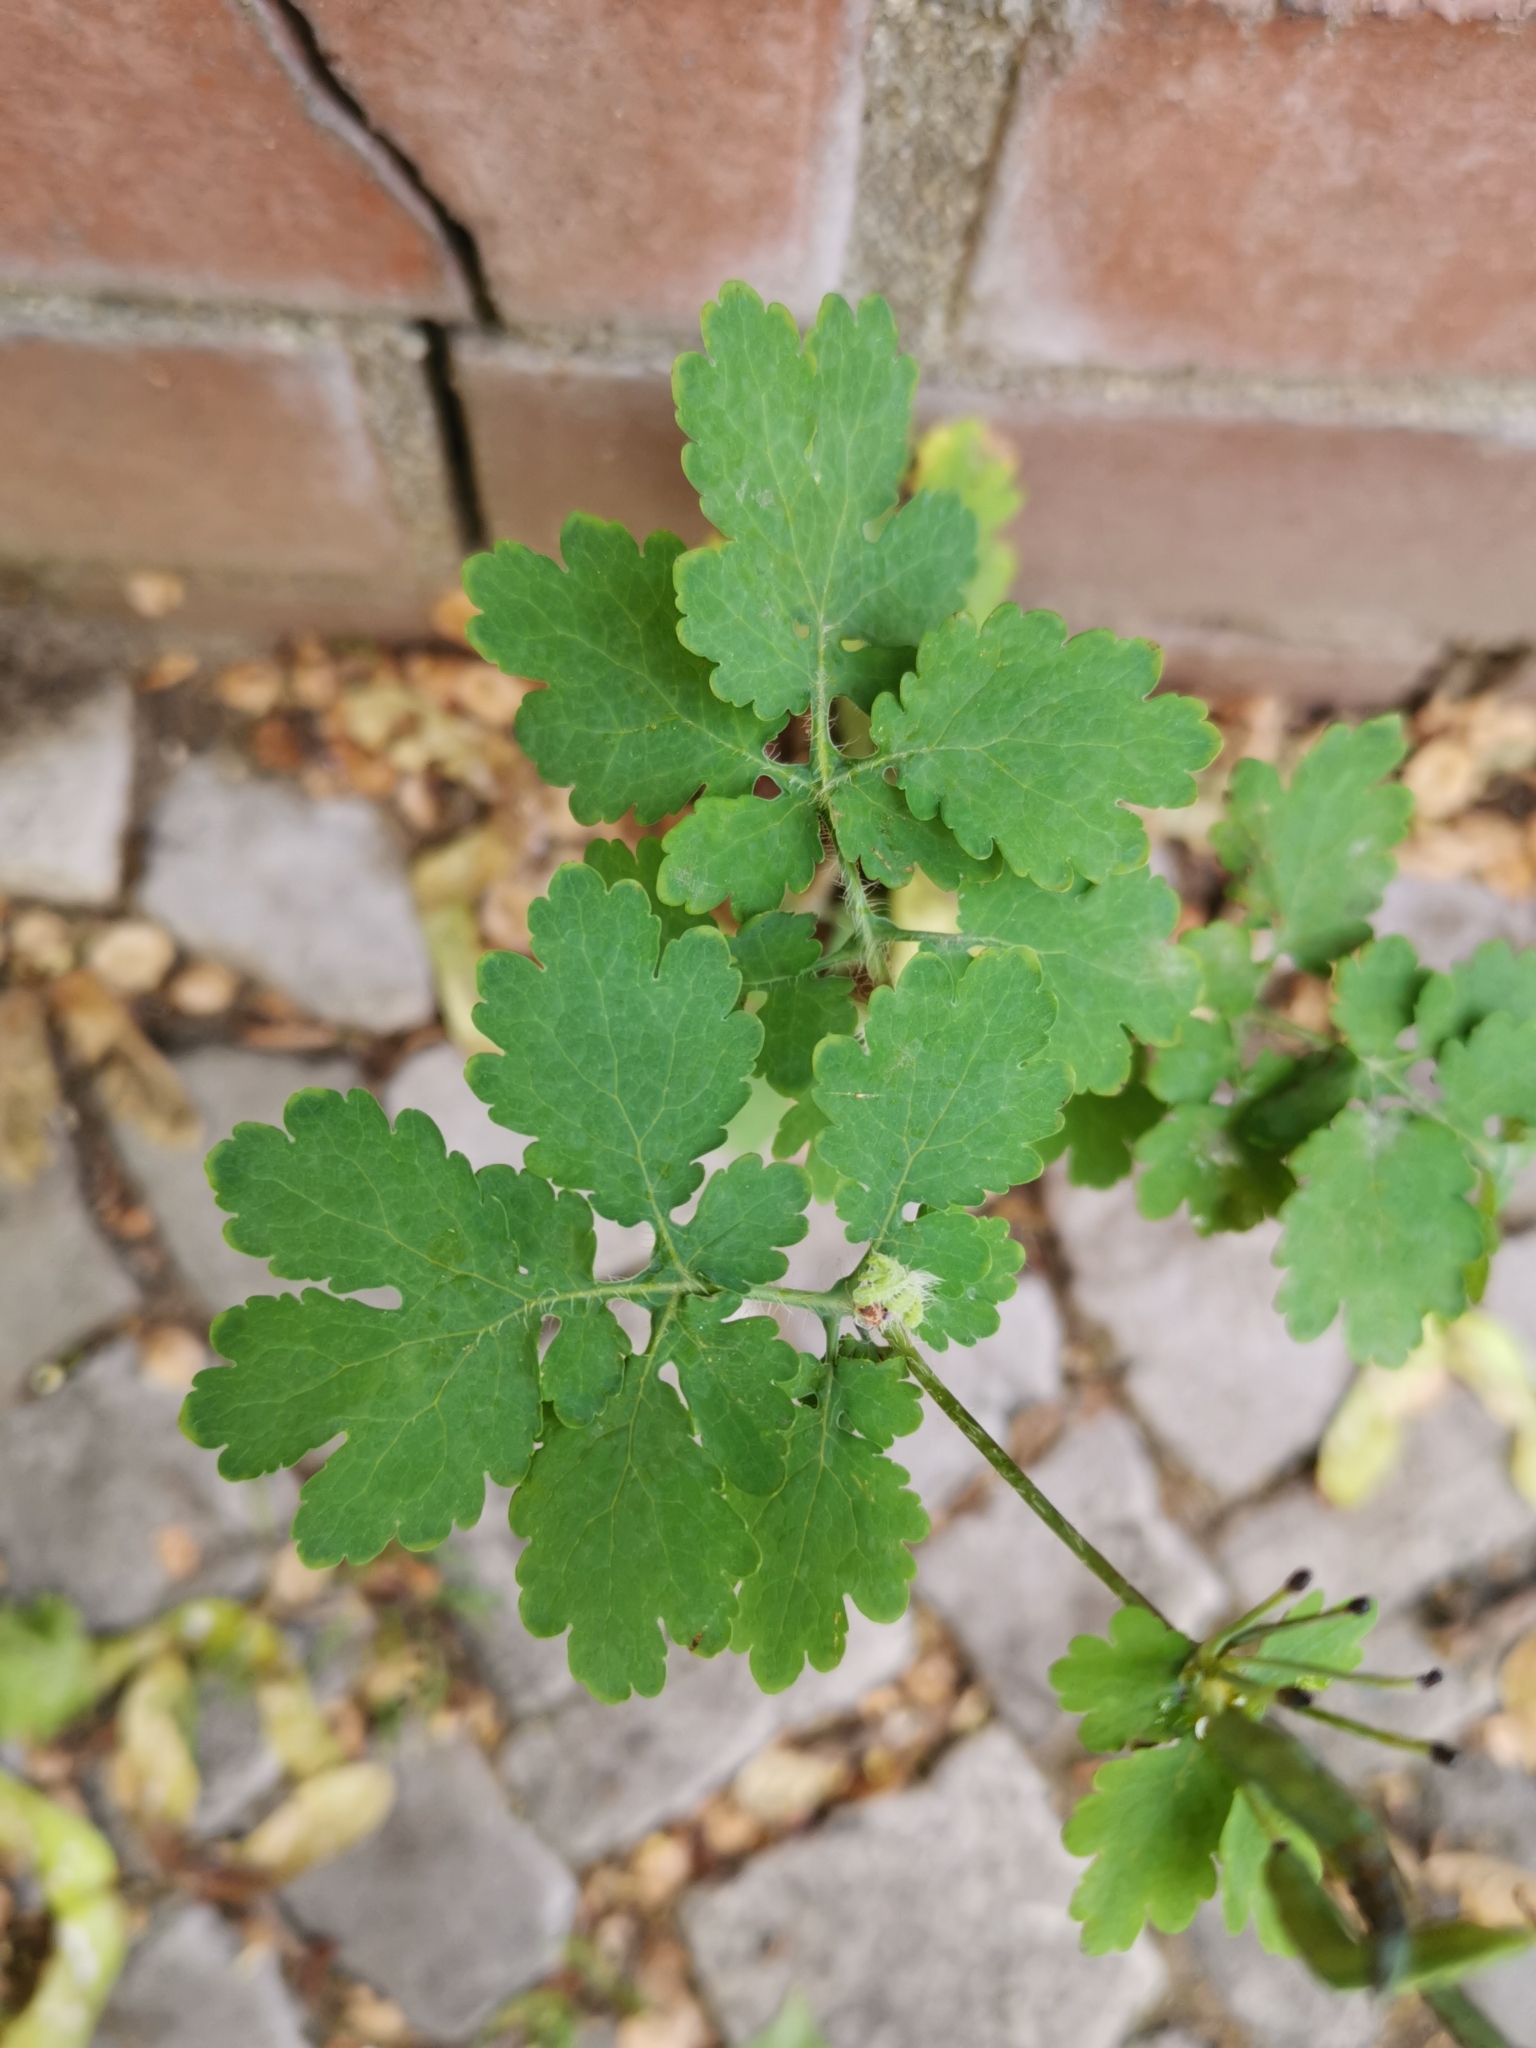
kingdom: Plantae
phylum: Tracheophyta
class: Magnoliopsida
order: Ranunculales
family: Papaveraceae
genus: Chelidonium
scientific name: Chelidonium majus
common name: Greater celandine
